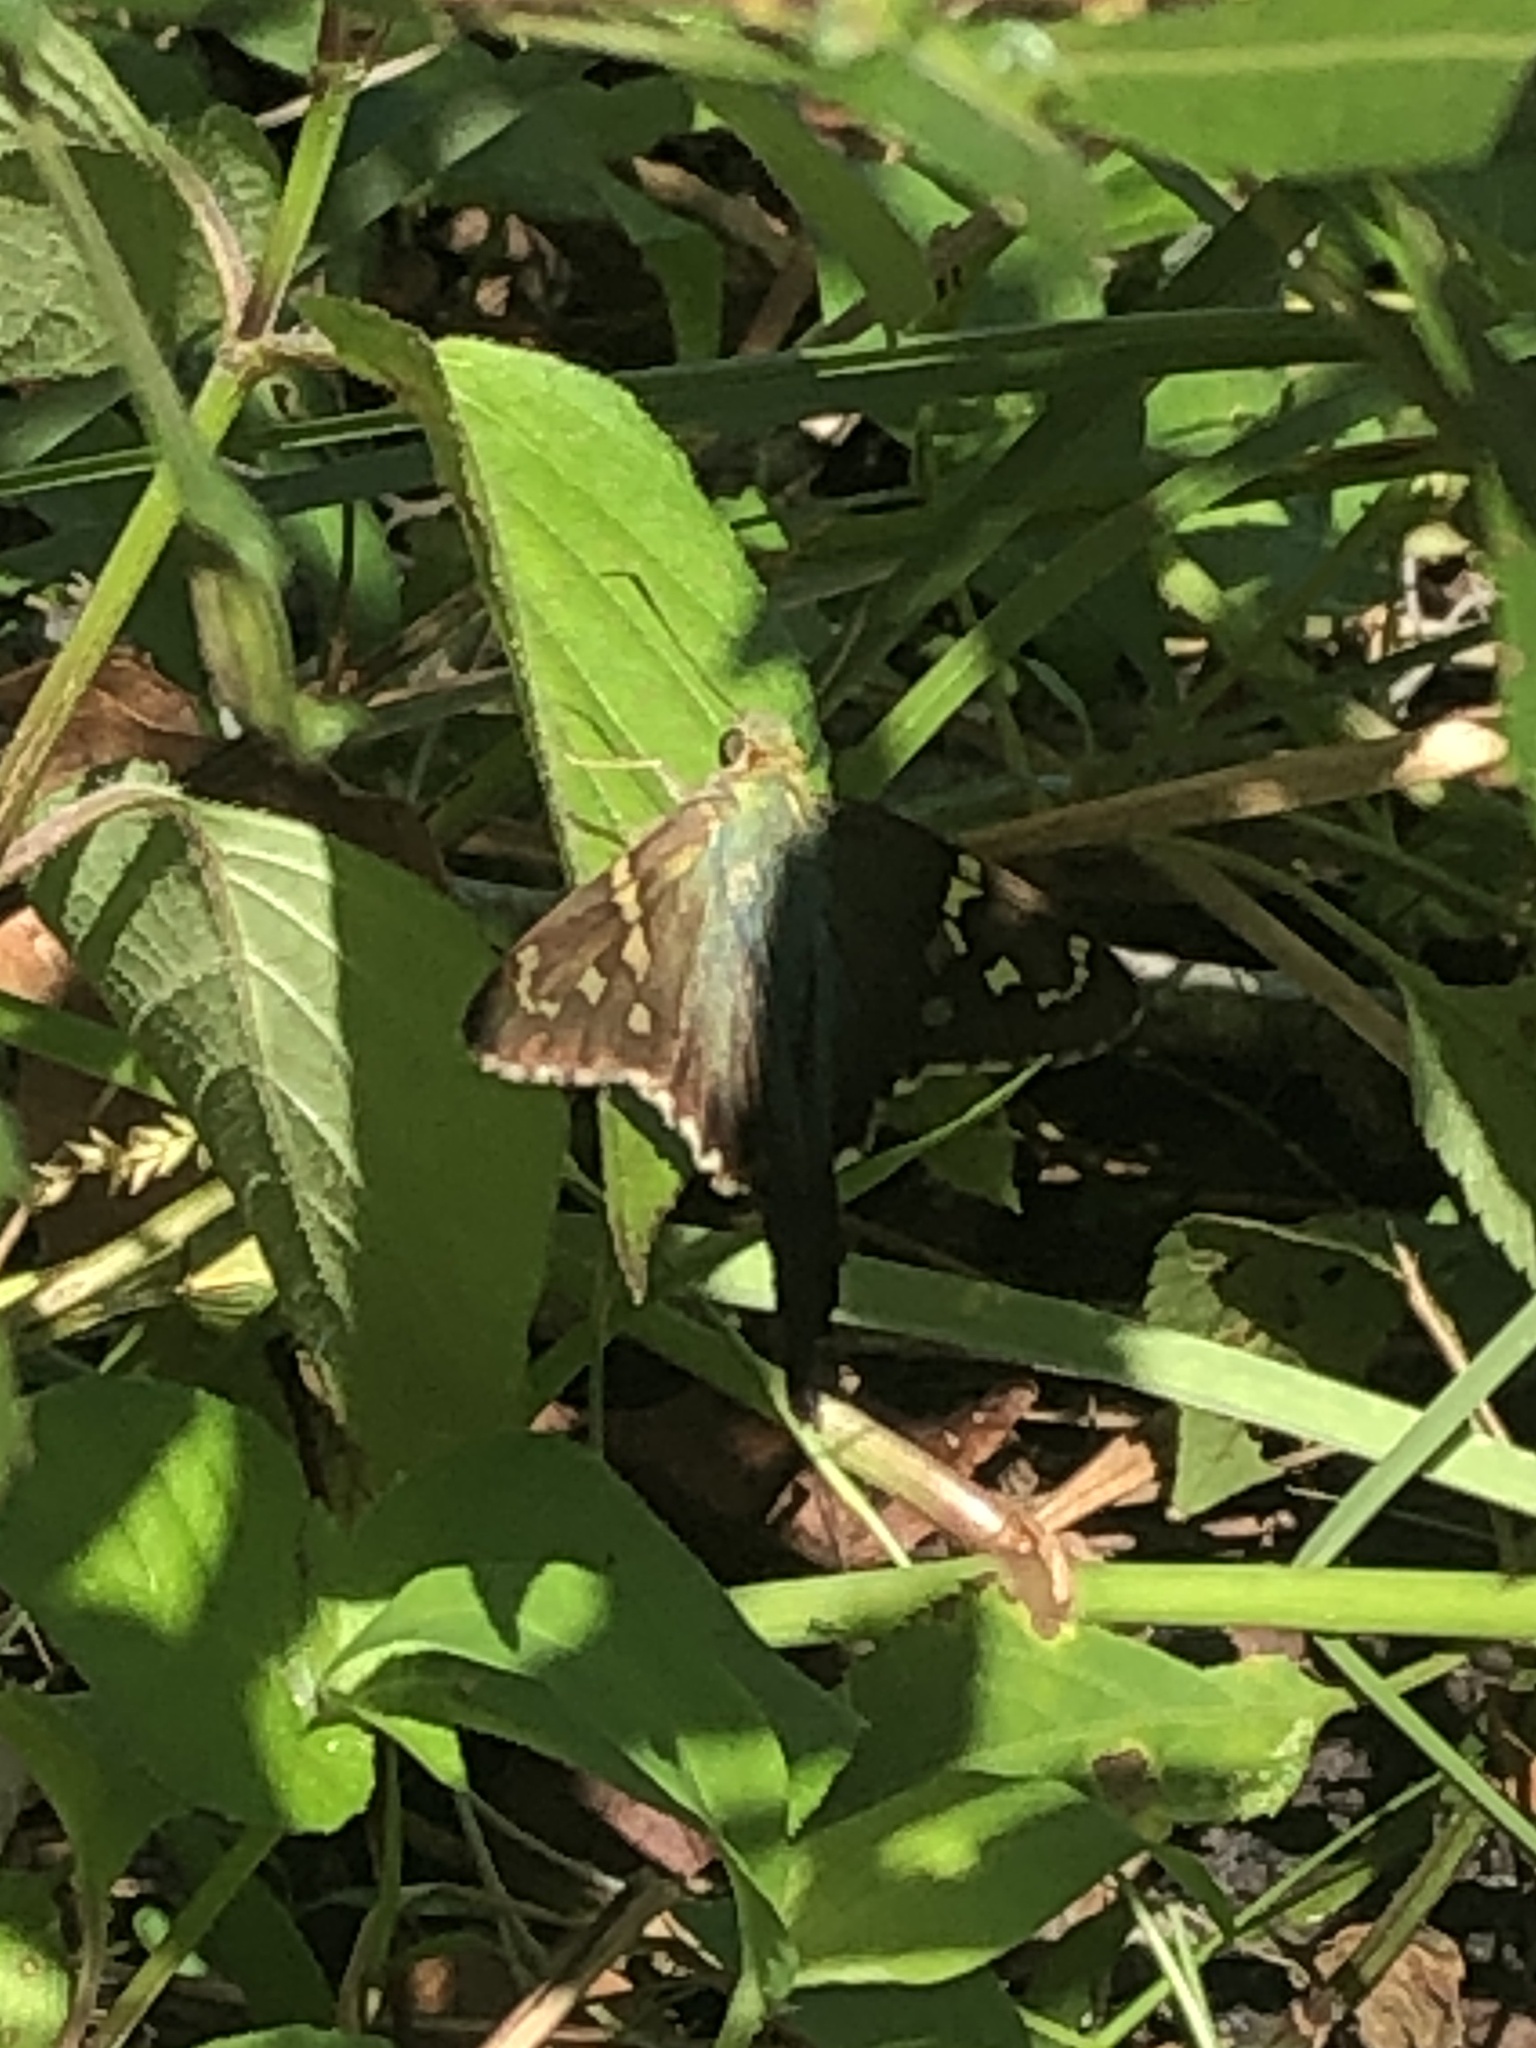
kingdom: Animalia
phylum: Arthropoda
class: Insecta
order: Lepidoptera
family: Hesperiidae
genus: Urbanus
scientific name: Urbanus proteus
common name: Long-tailed skipper
